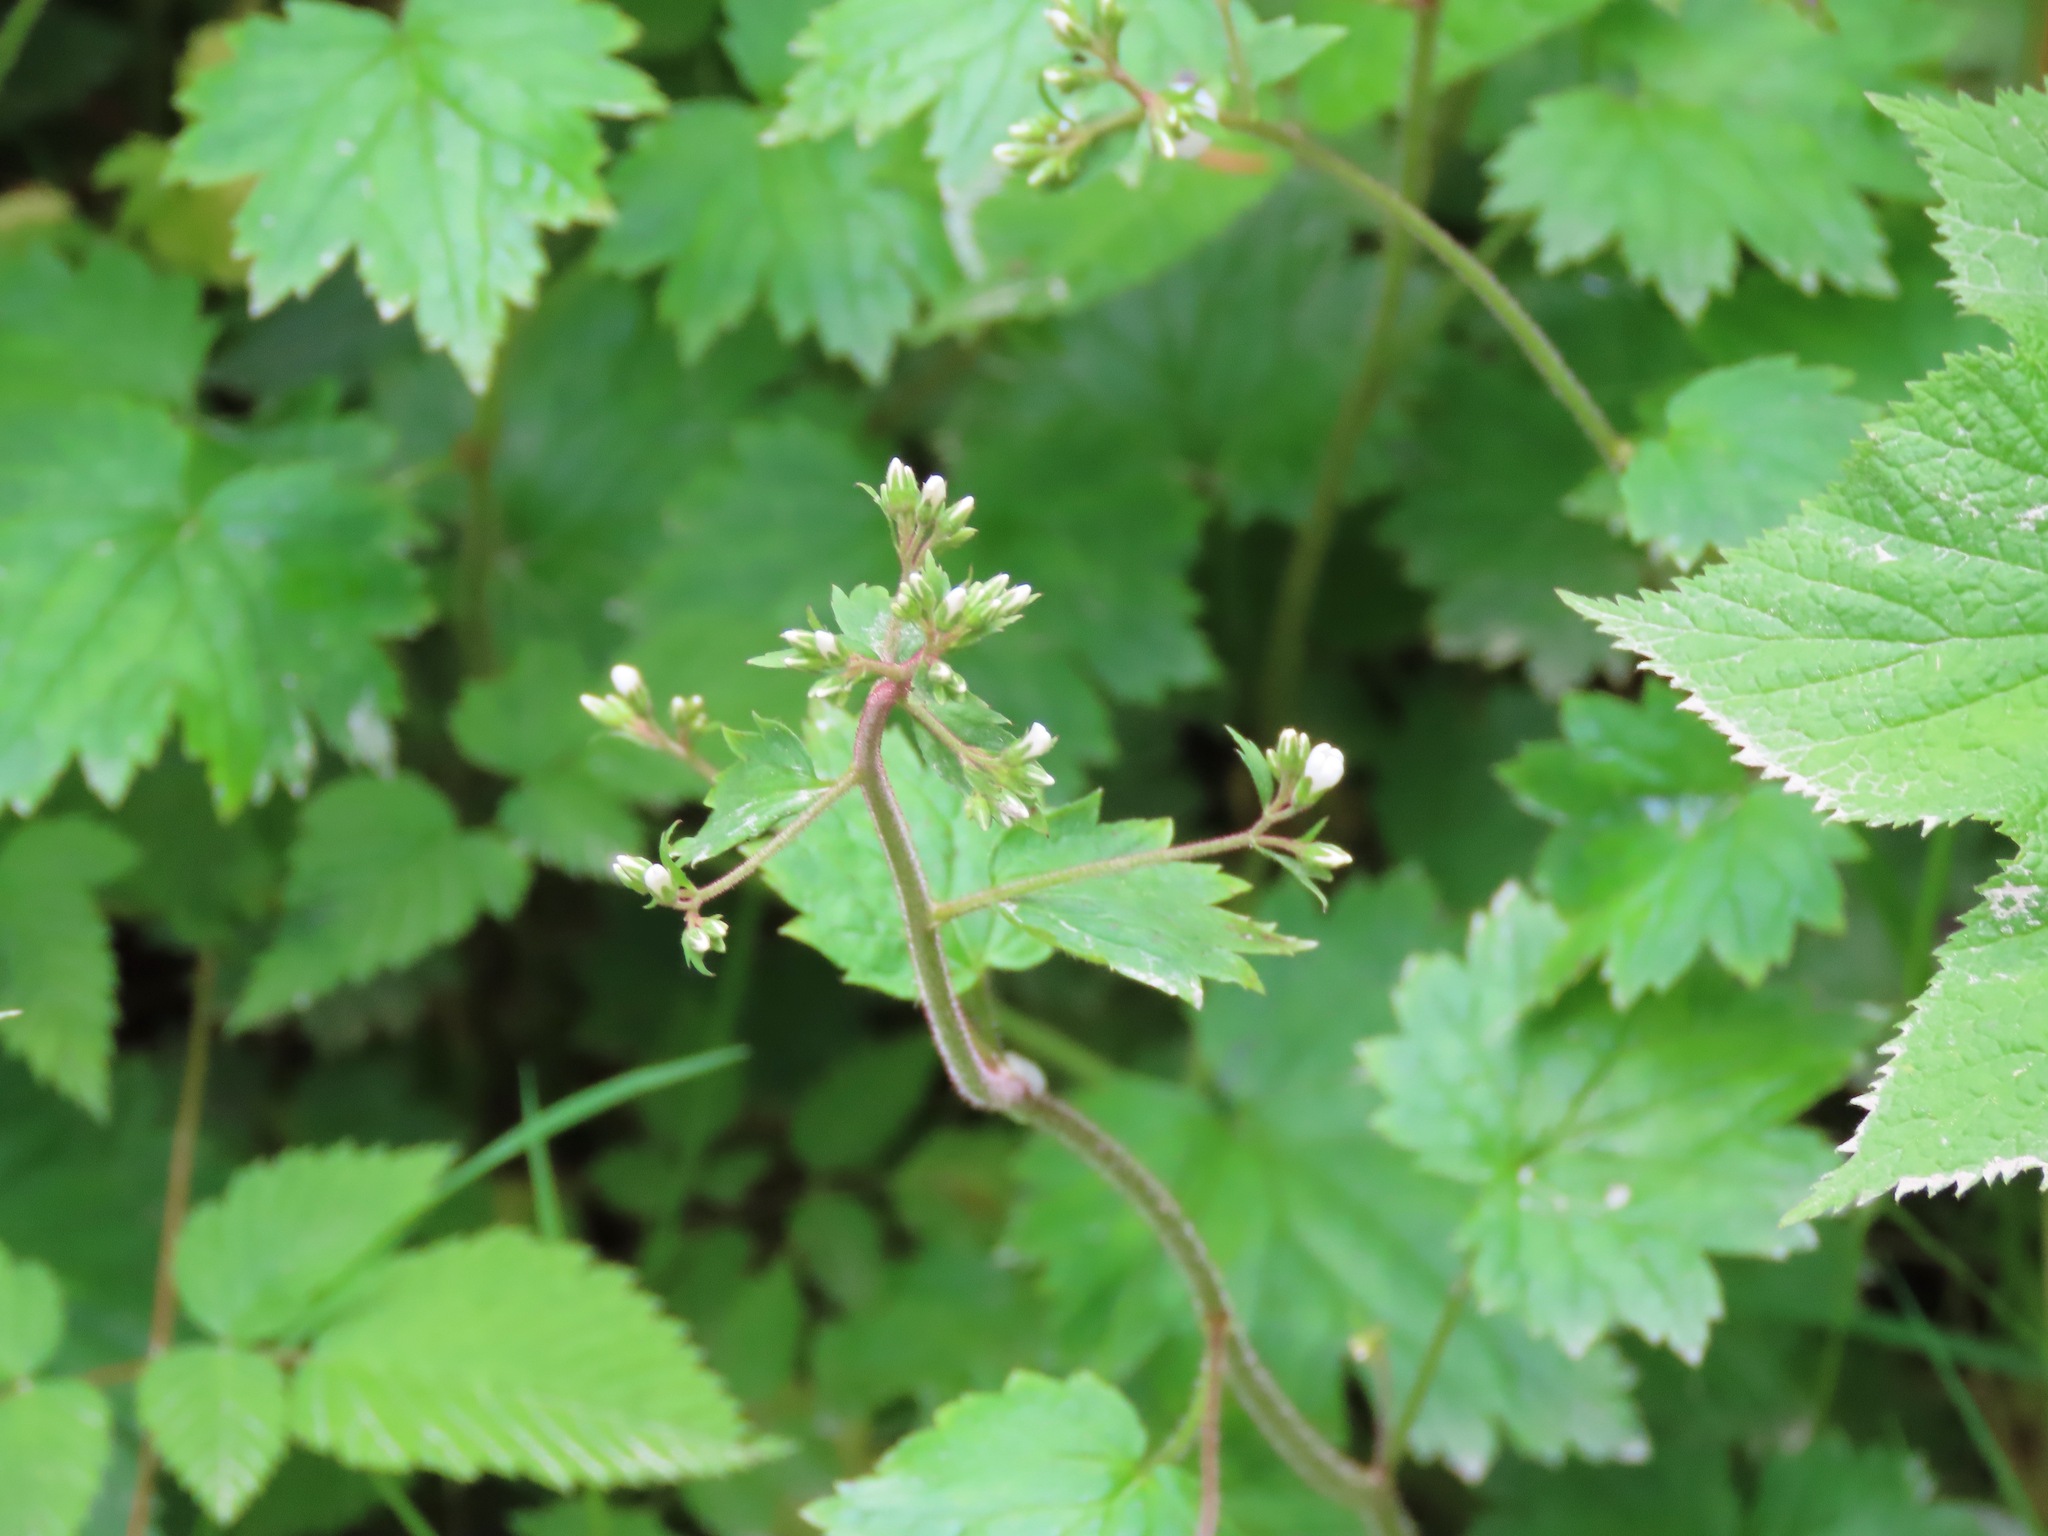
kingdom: Plantae
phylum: Tracheophyta
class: Magnoliopsida
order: Saxifragales
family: Saxifragaceae
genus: Boykinia
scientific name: Boykinia occidentalis
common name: Coast boykinia
